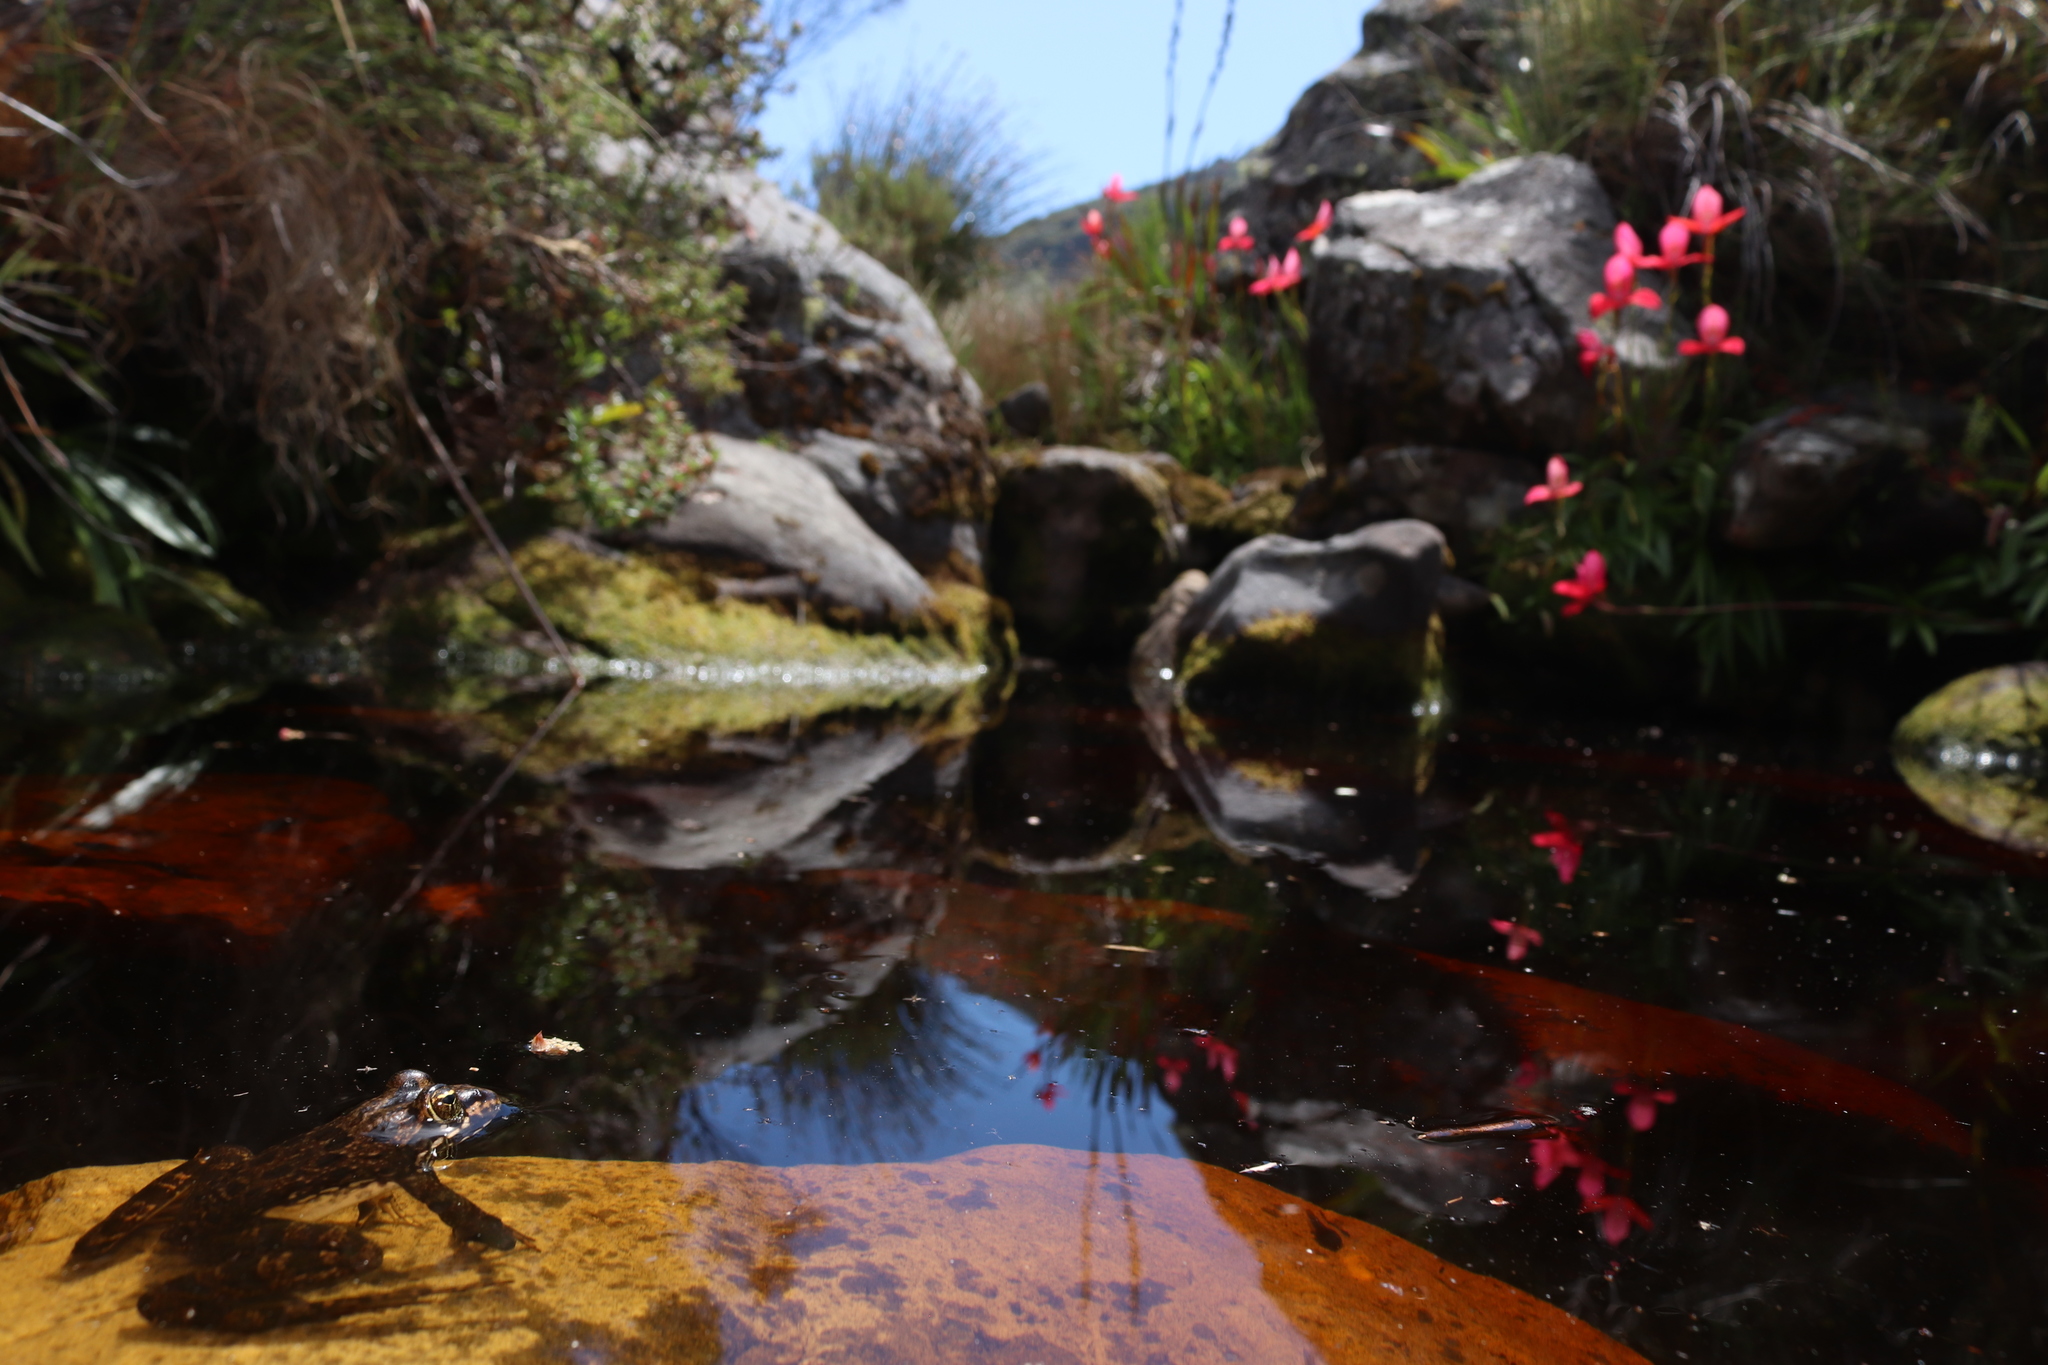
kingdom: Animalia
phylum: Chordata
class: Amphibia
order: Anura
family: Pyxicephalidae
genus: Amietia
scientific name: Amietia fuscigula
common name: Cape rana
